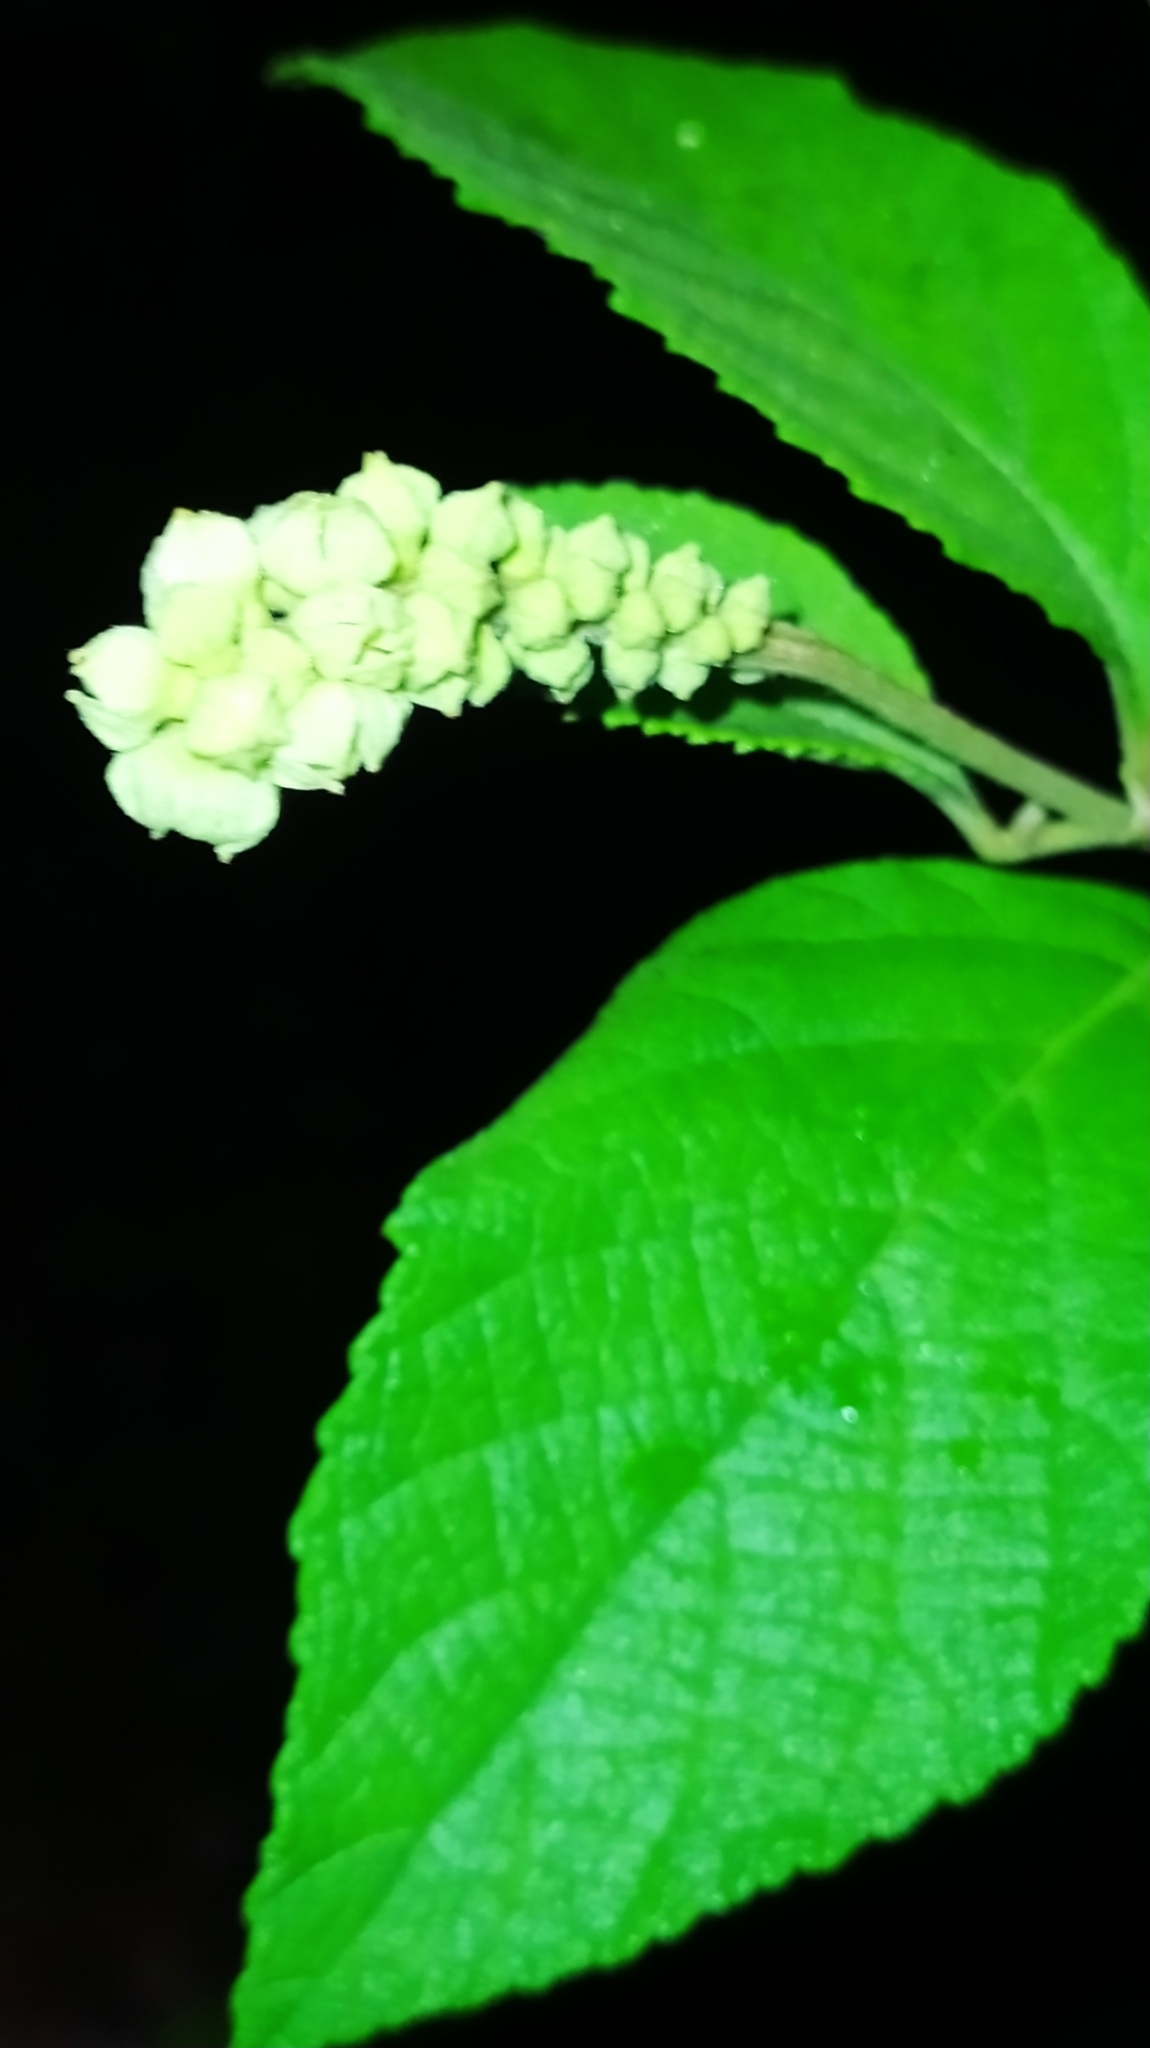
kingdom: Plantae
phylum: Tracheophyta
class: Magnoliopsida
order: Boraginales
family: Cordiaceae
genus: Varronia
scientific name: Varronia tomentosa
